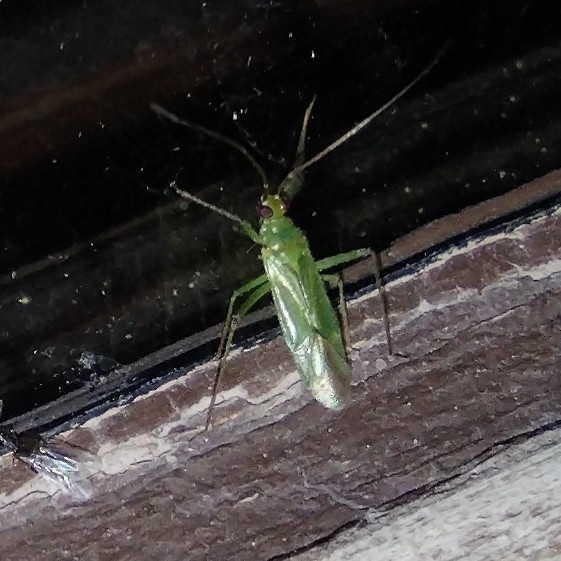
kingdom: Animalia
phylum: Arthropoda
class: Insecta
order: Hemiptera
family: Miridae
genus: Blepharidopterus
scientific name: Blepharidopterus angulatus
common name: Plant bug
